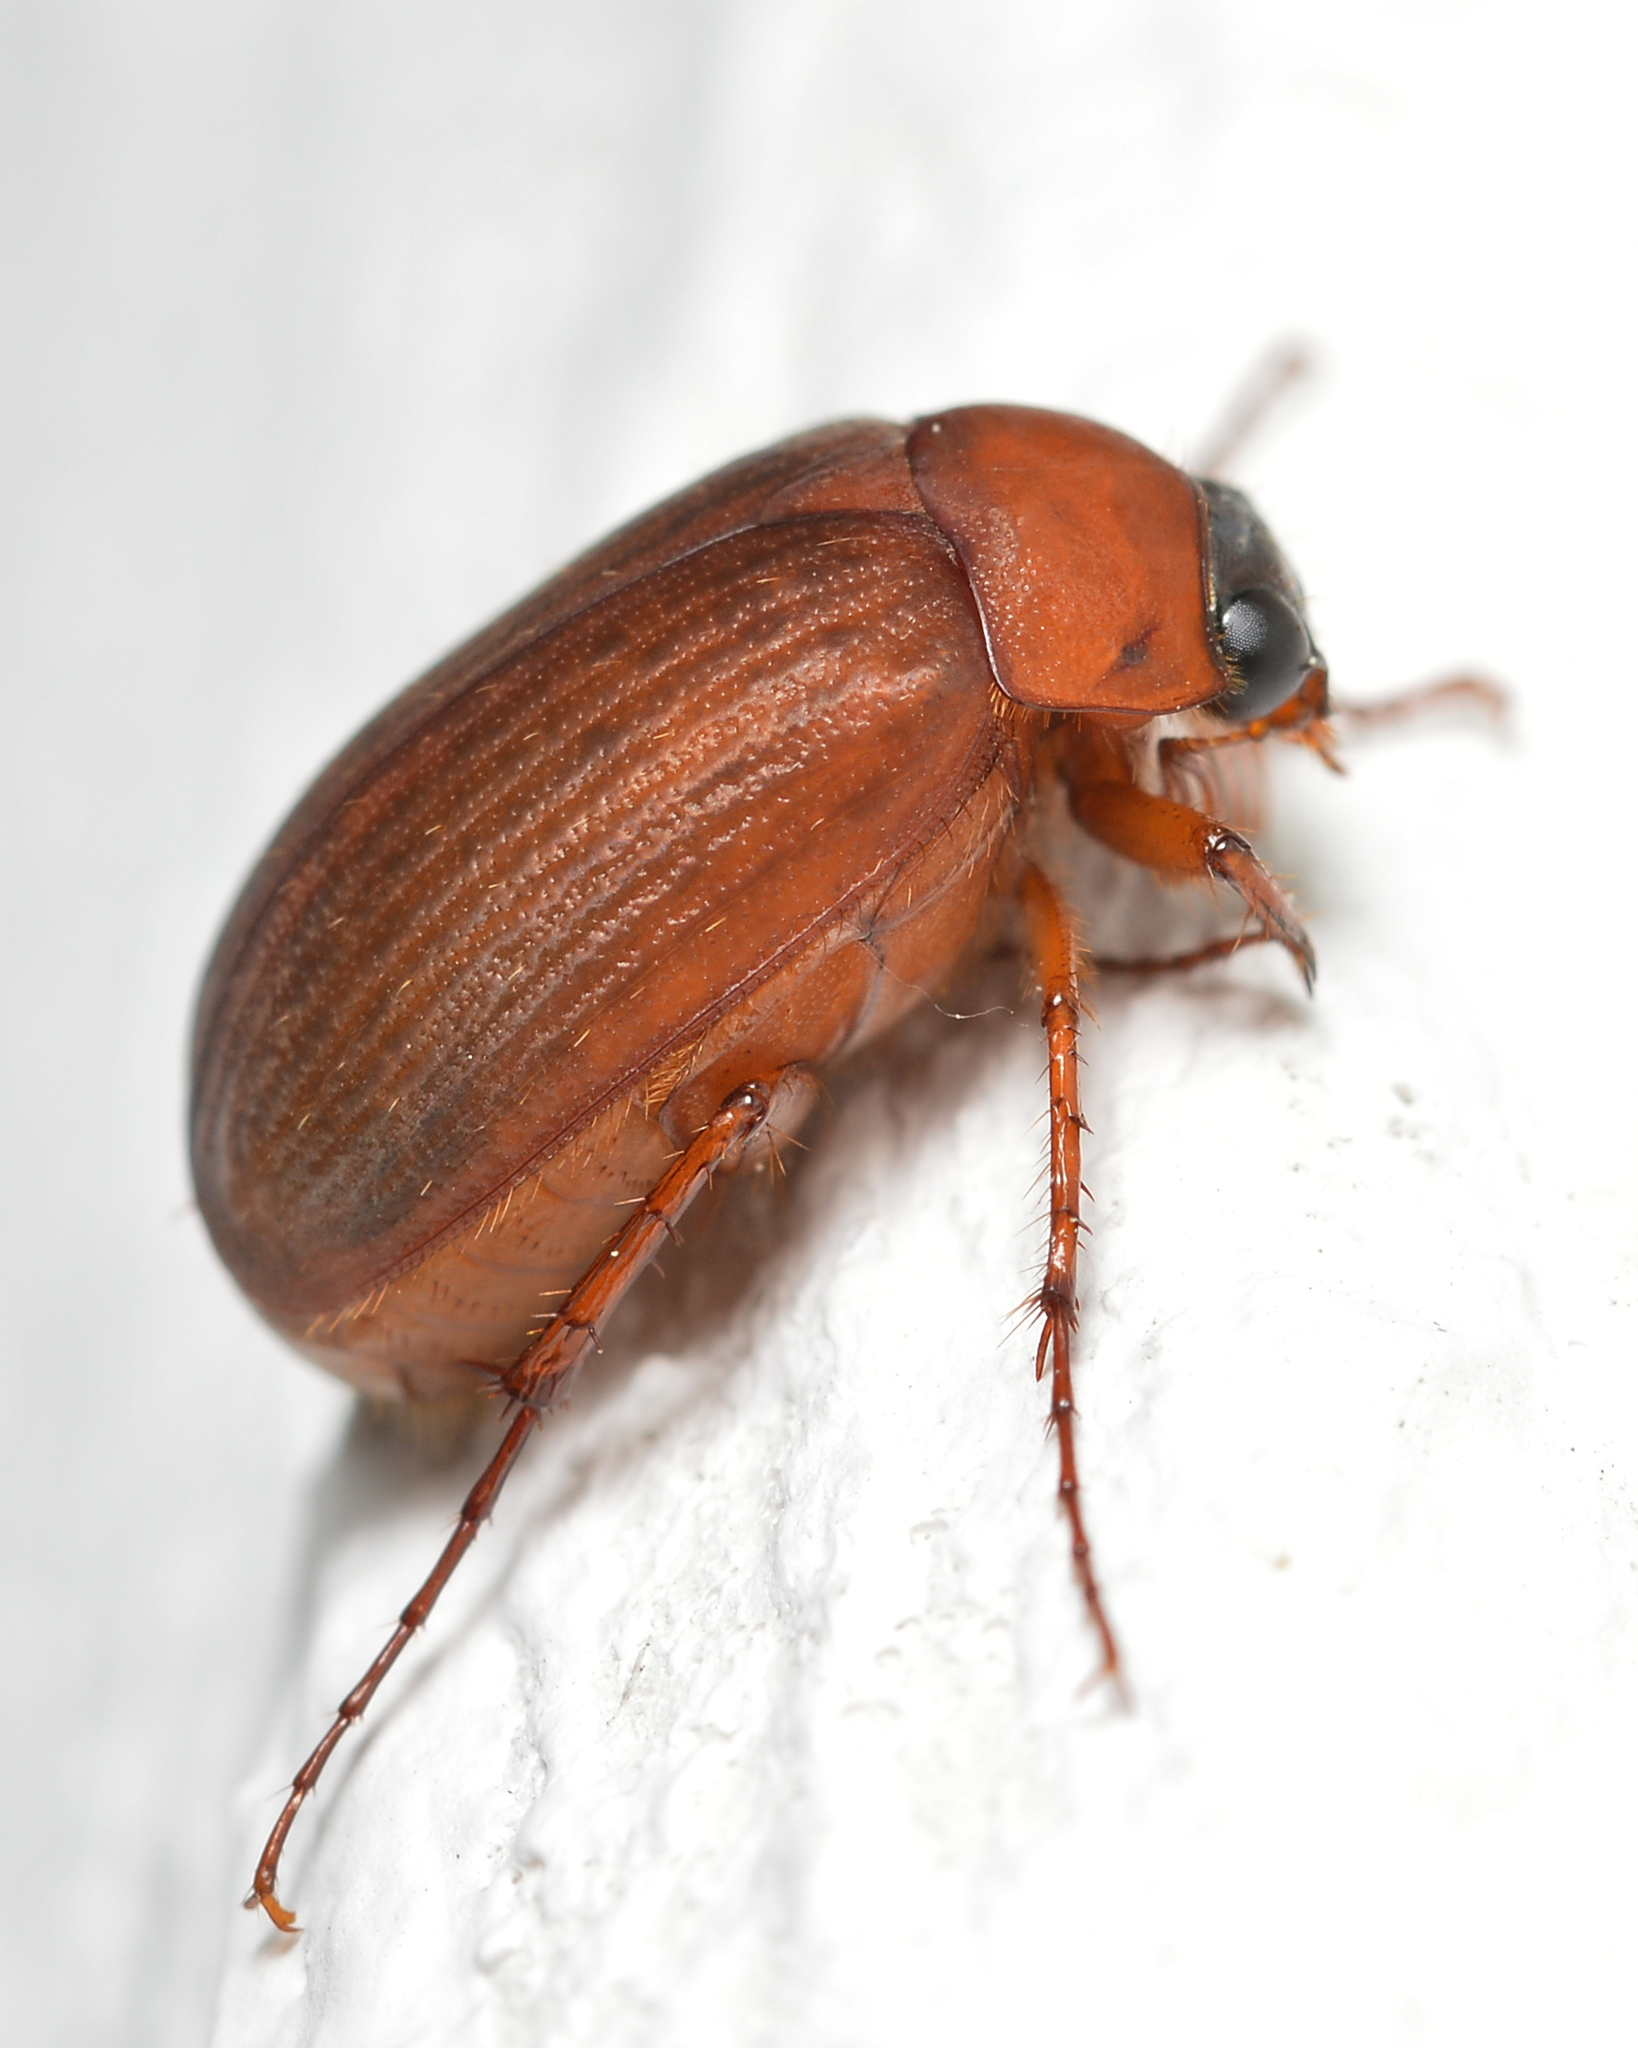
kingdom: Animalia
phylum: Arthropoda
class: Insecta
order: Coleoptera
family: Scarabaeidae
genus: Serica
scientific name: Serica brunnea
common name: Brown chafer
